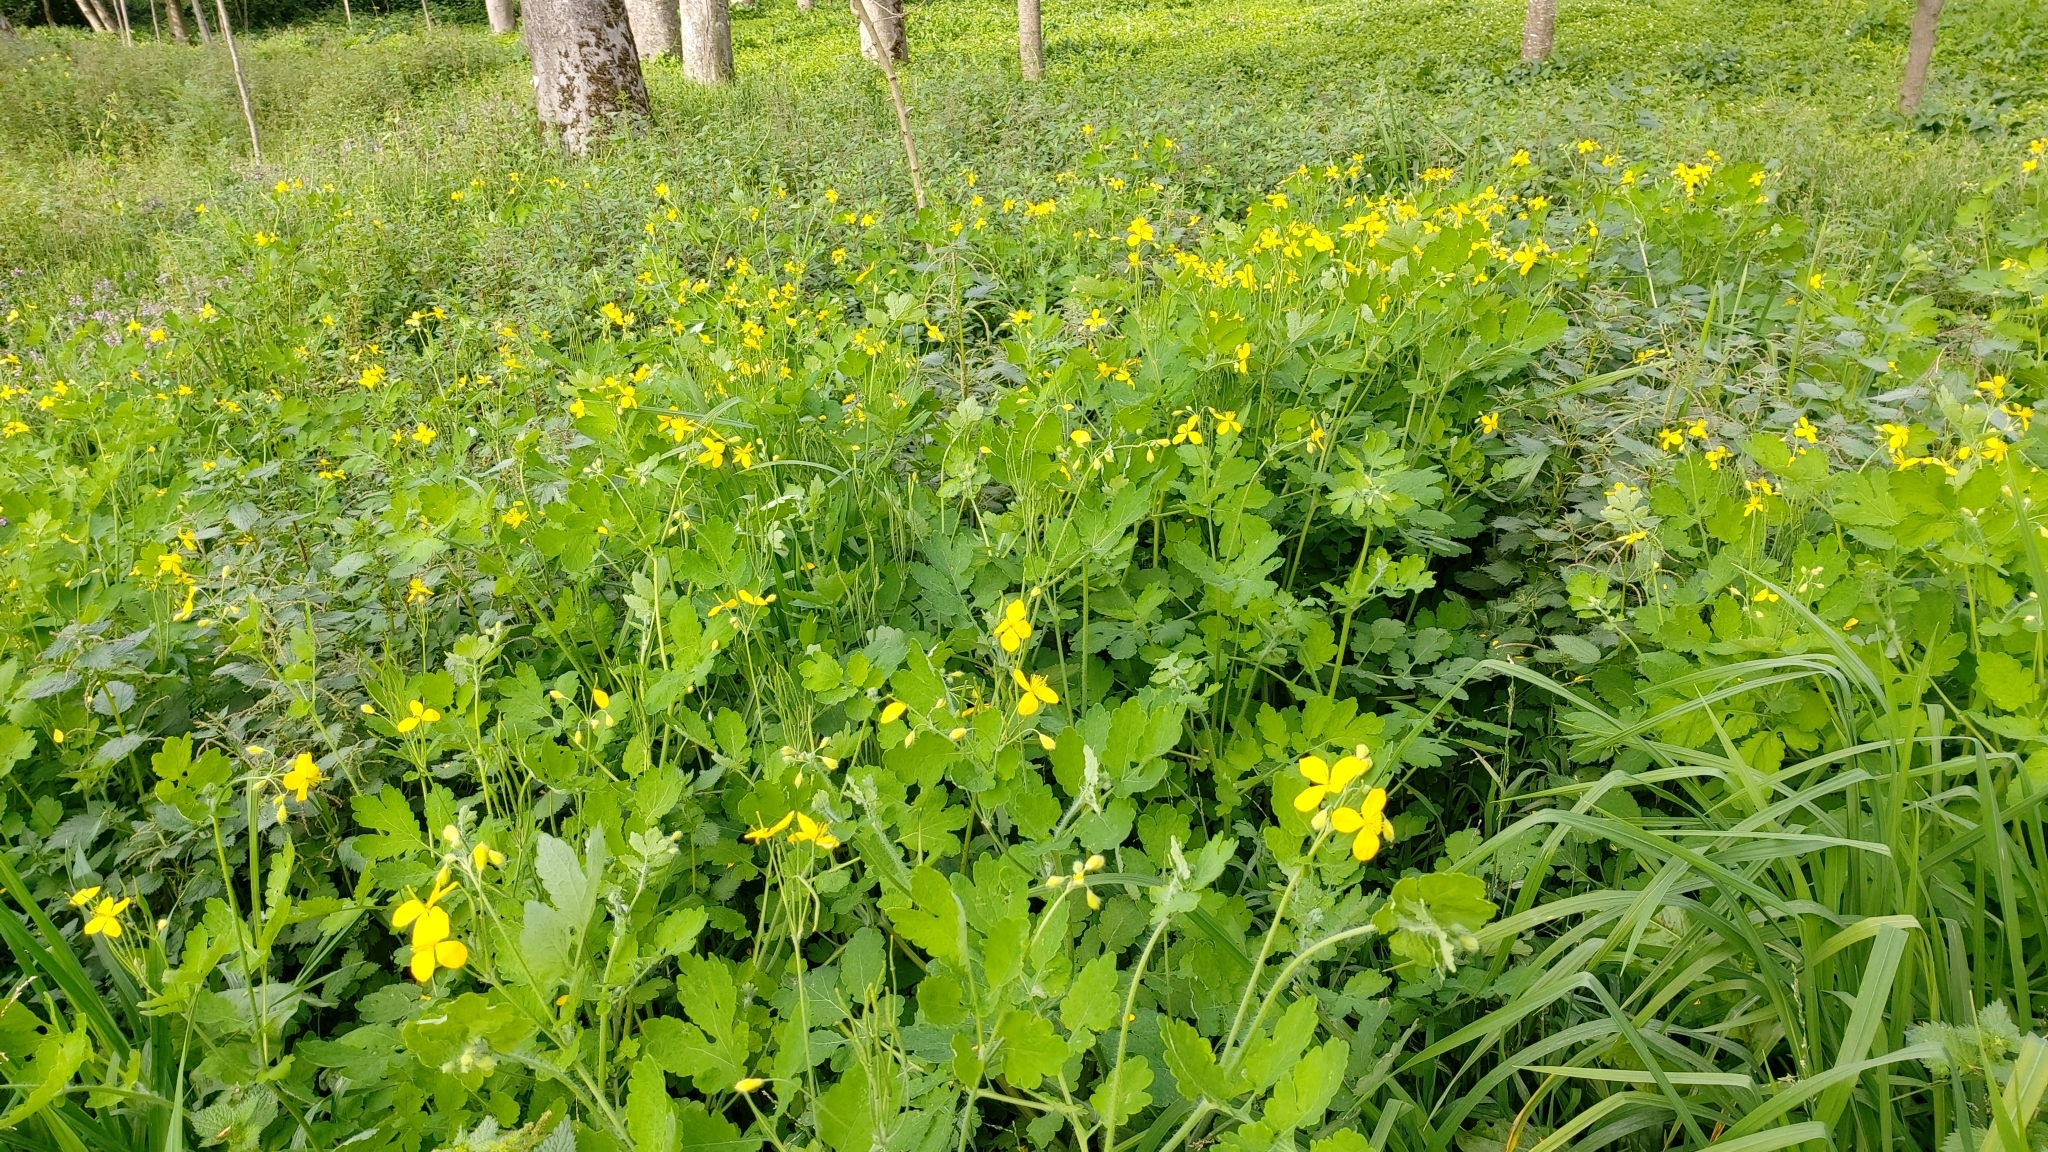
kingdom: Plantae
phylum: Tracheophyta
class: Magnoliopsida
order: Ranunculales
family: Papaveraceae
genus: Chelidonium
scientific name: Chelidonium majus
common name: Greater celandine
